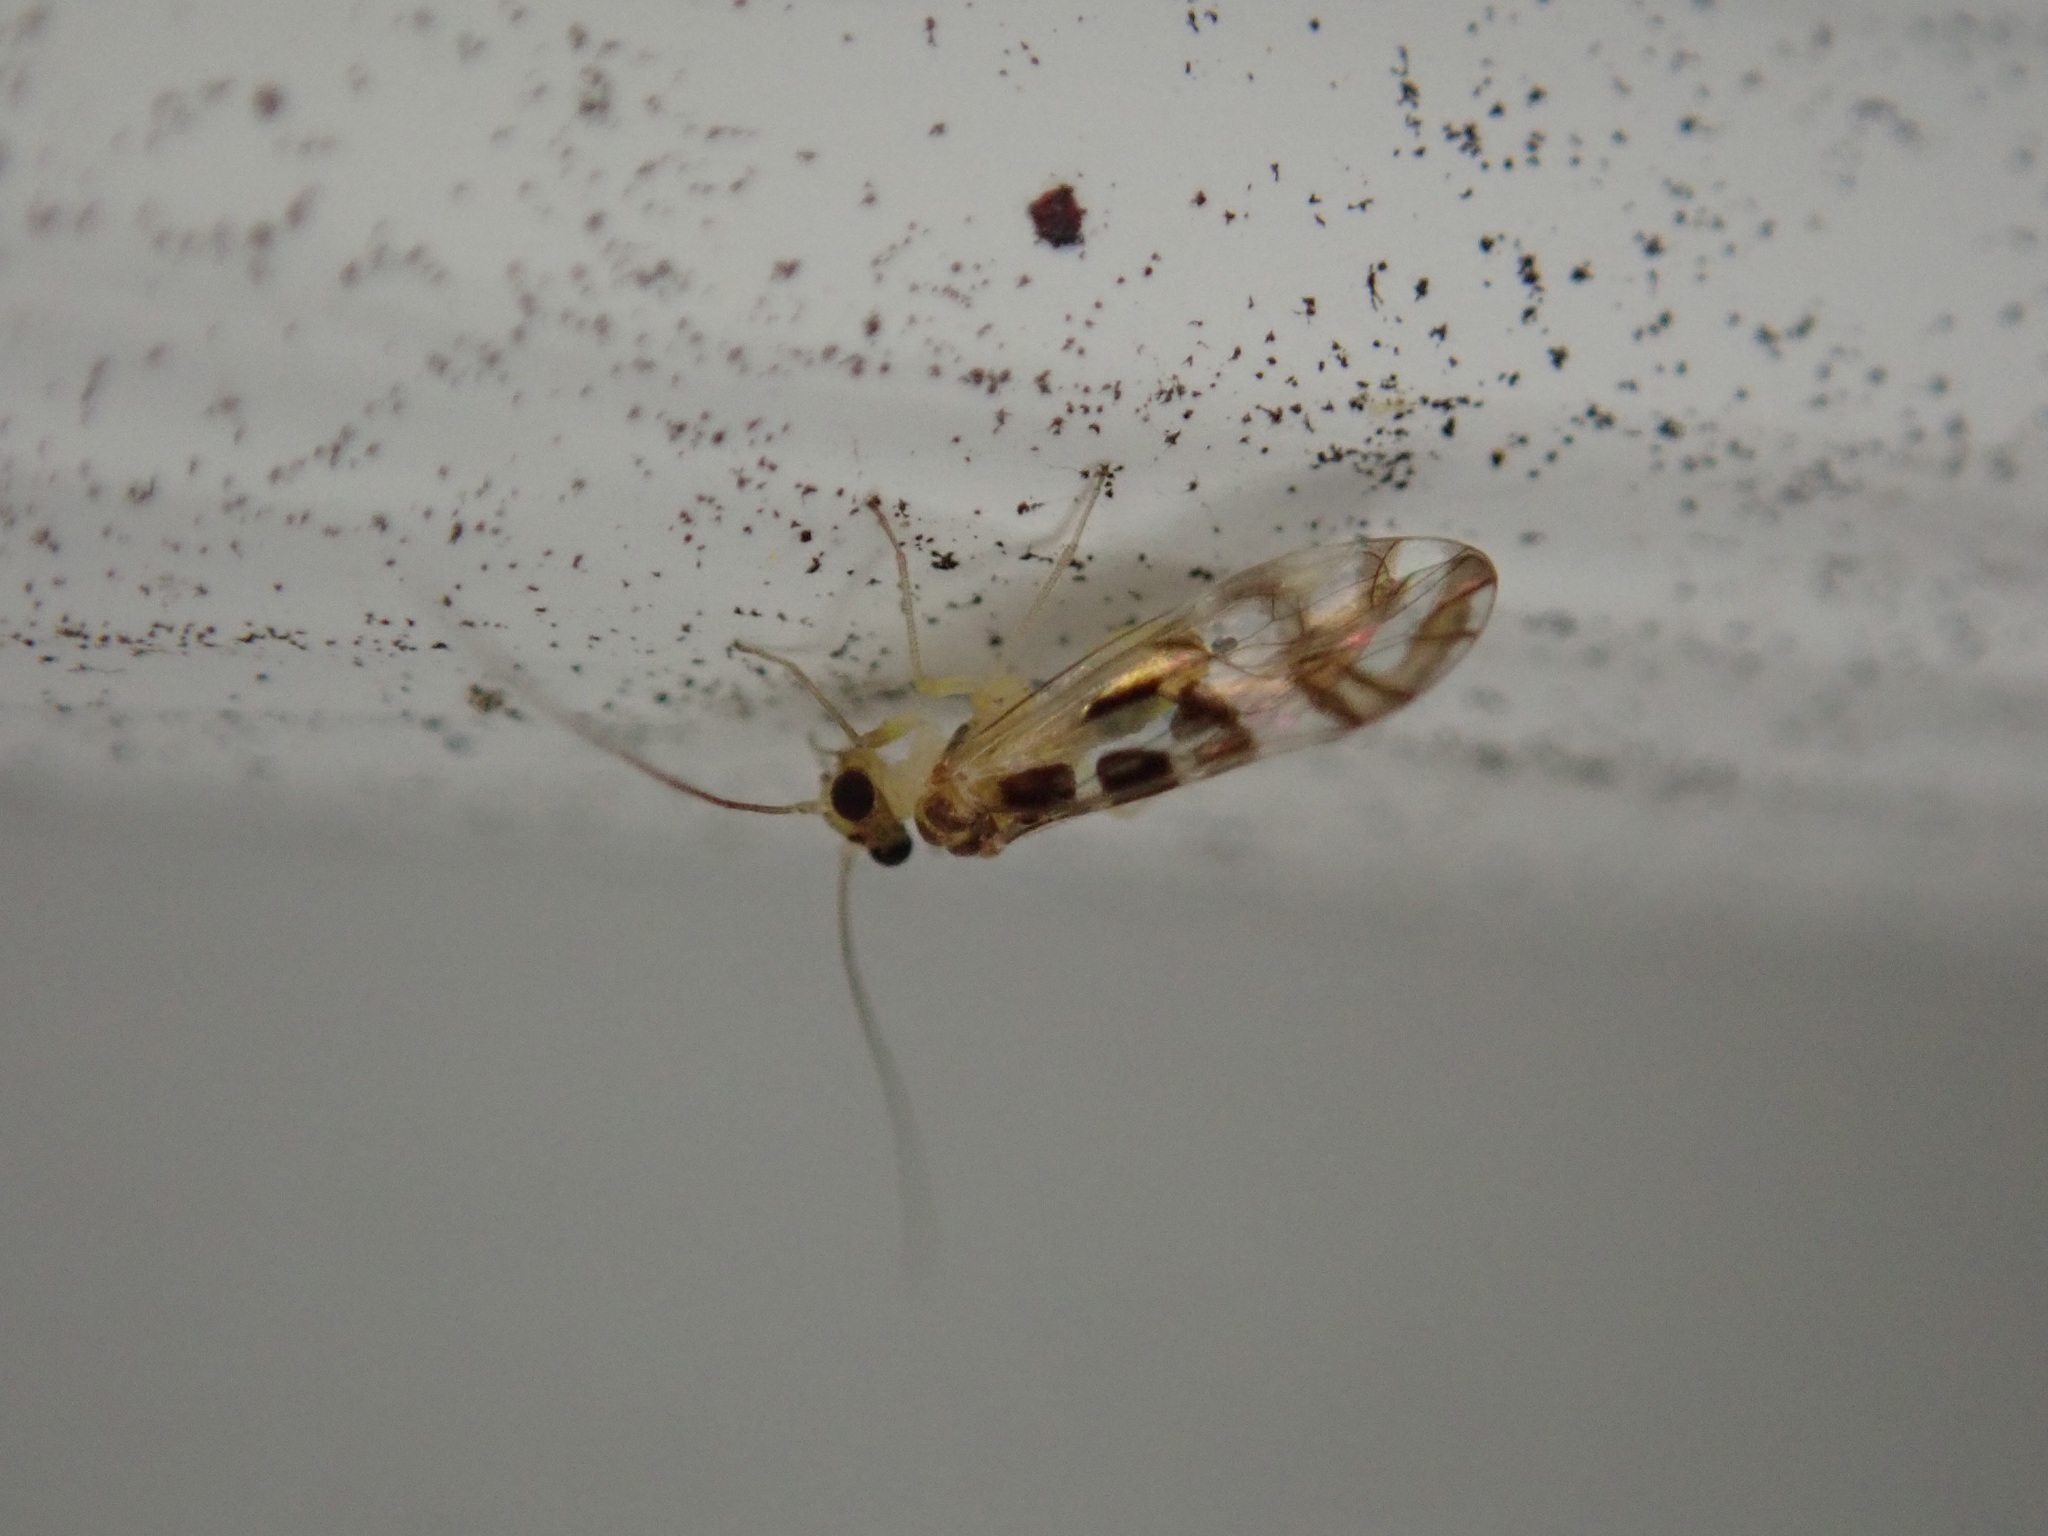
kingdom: Animalia
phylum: Arthropoda
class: Insecta
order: Psocodea
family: Stenopsocidae
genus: Graphopsocus
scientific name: Graphopsocus cruciatus
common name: Lizard bark louse
